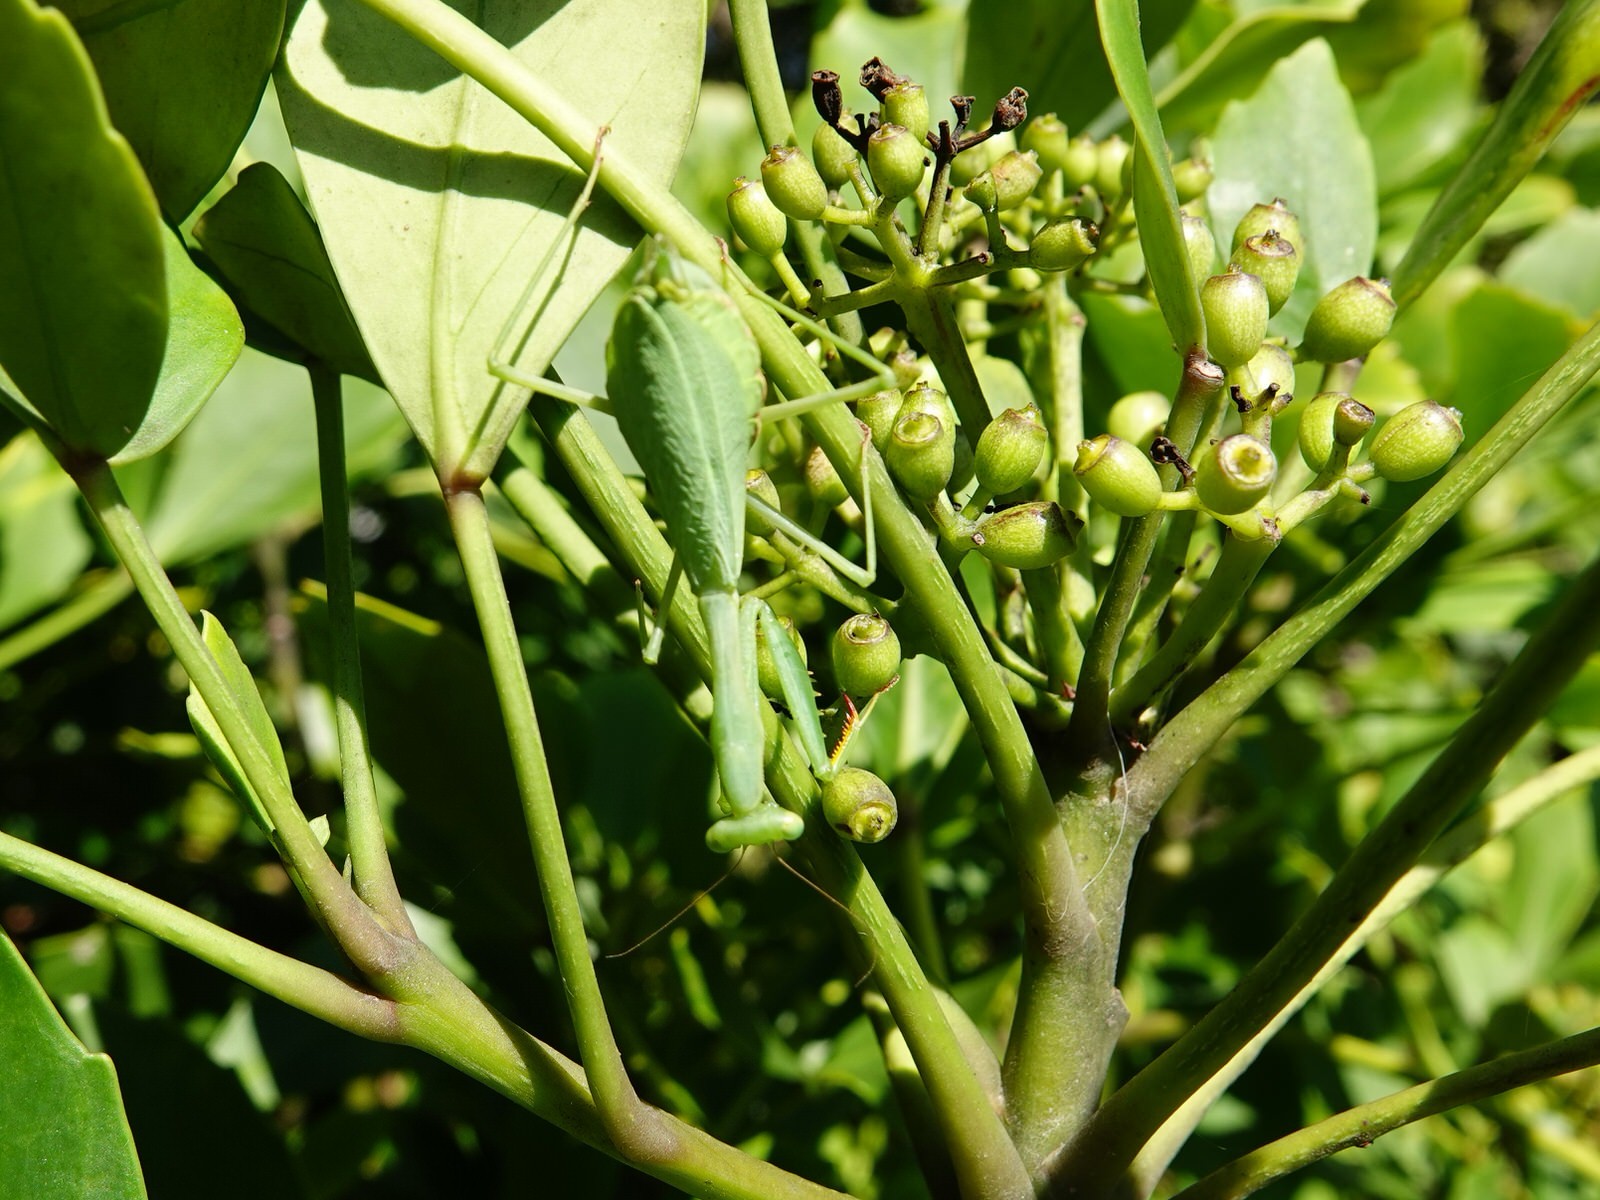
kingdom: Animalia
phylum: Arthropoda
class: Insecta
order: Mantodea
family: Miomantidae
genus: Miomantis
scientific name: Miomantis caffra
